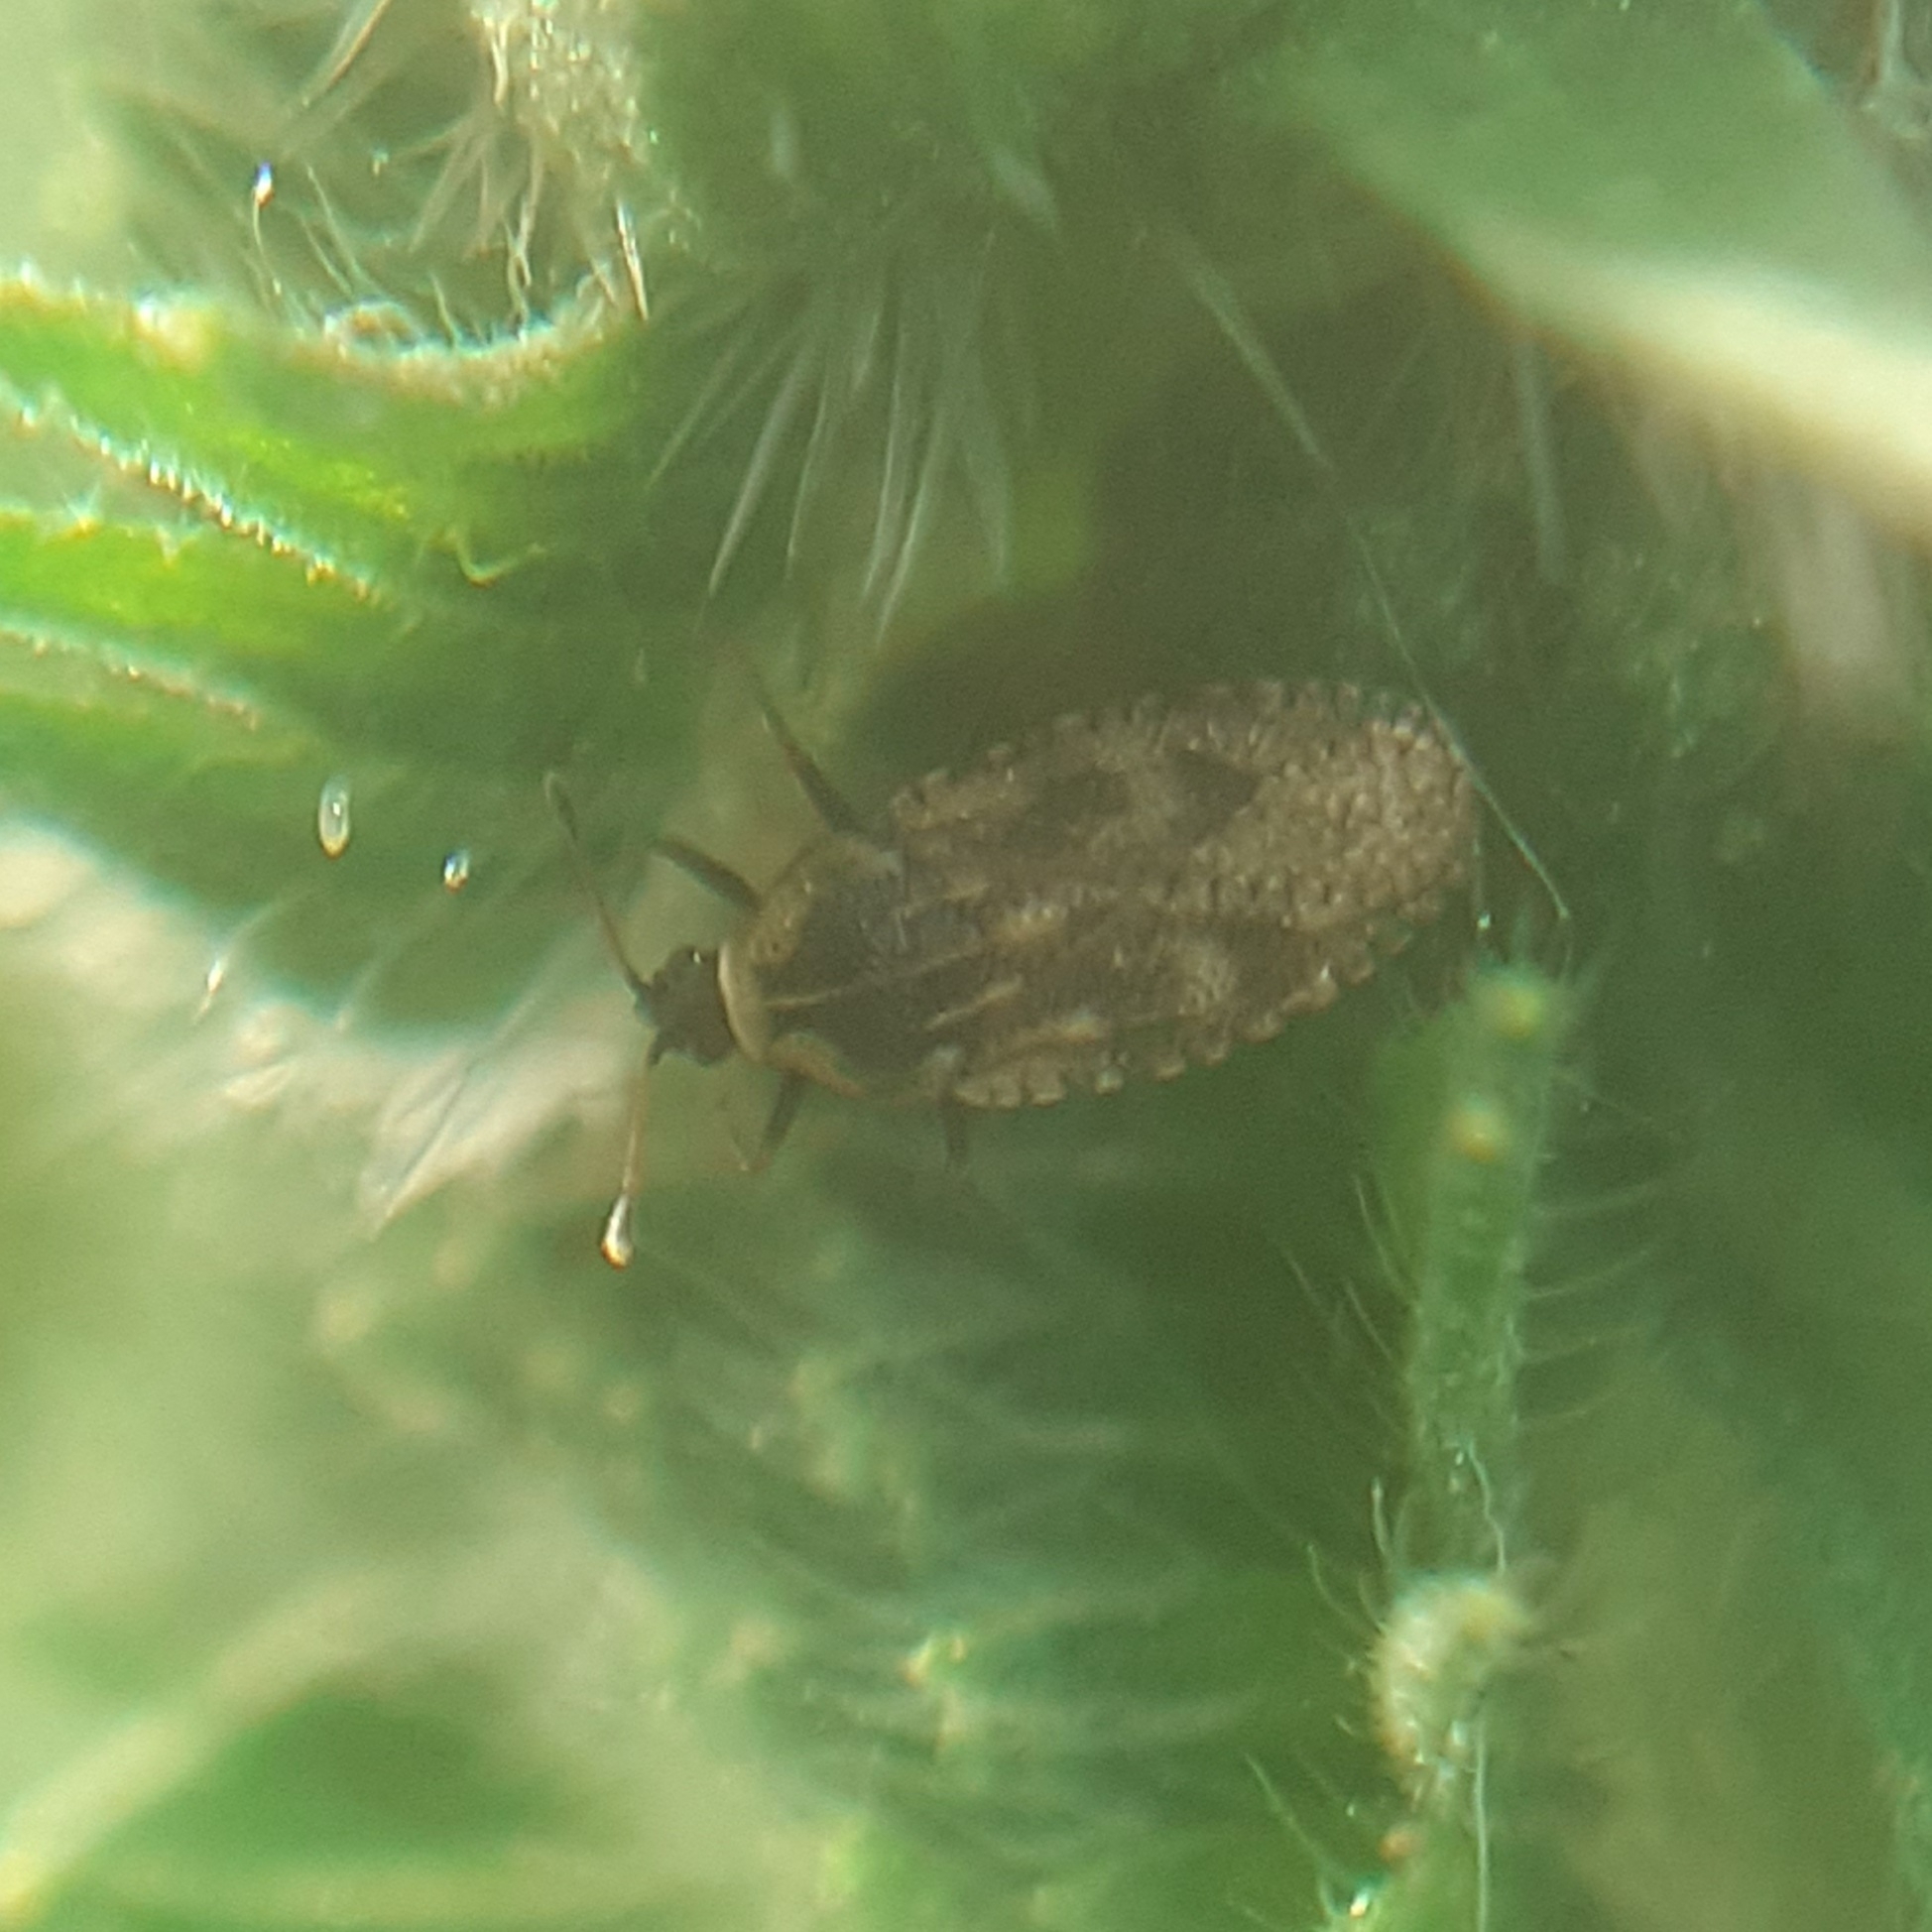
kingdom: Animalia
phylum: Arthropoda
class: Insecta
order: Hemiptera
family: Tingidae
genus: Dictyla
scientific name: Dictyla echii
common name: Lace bug
